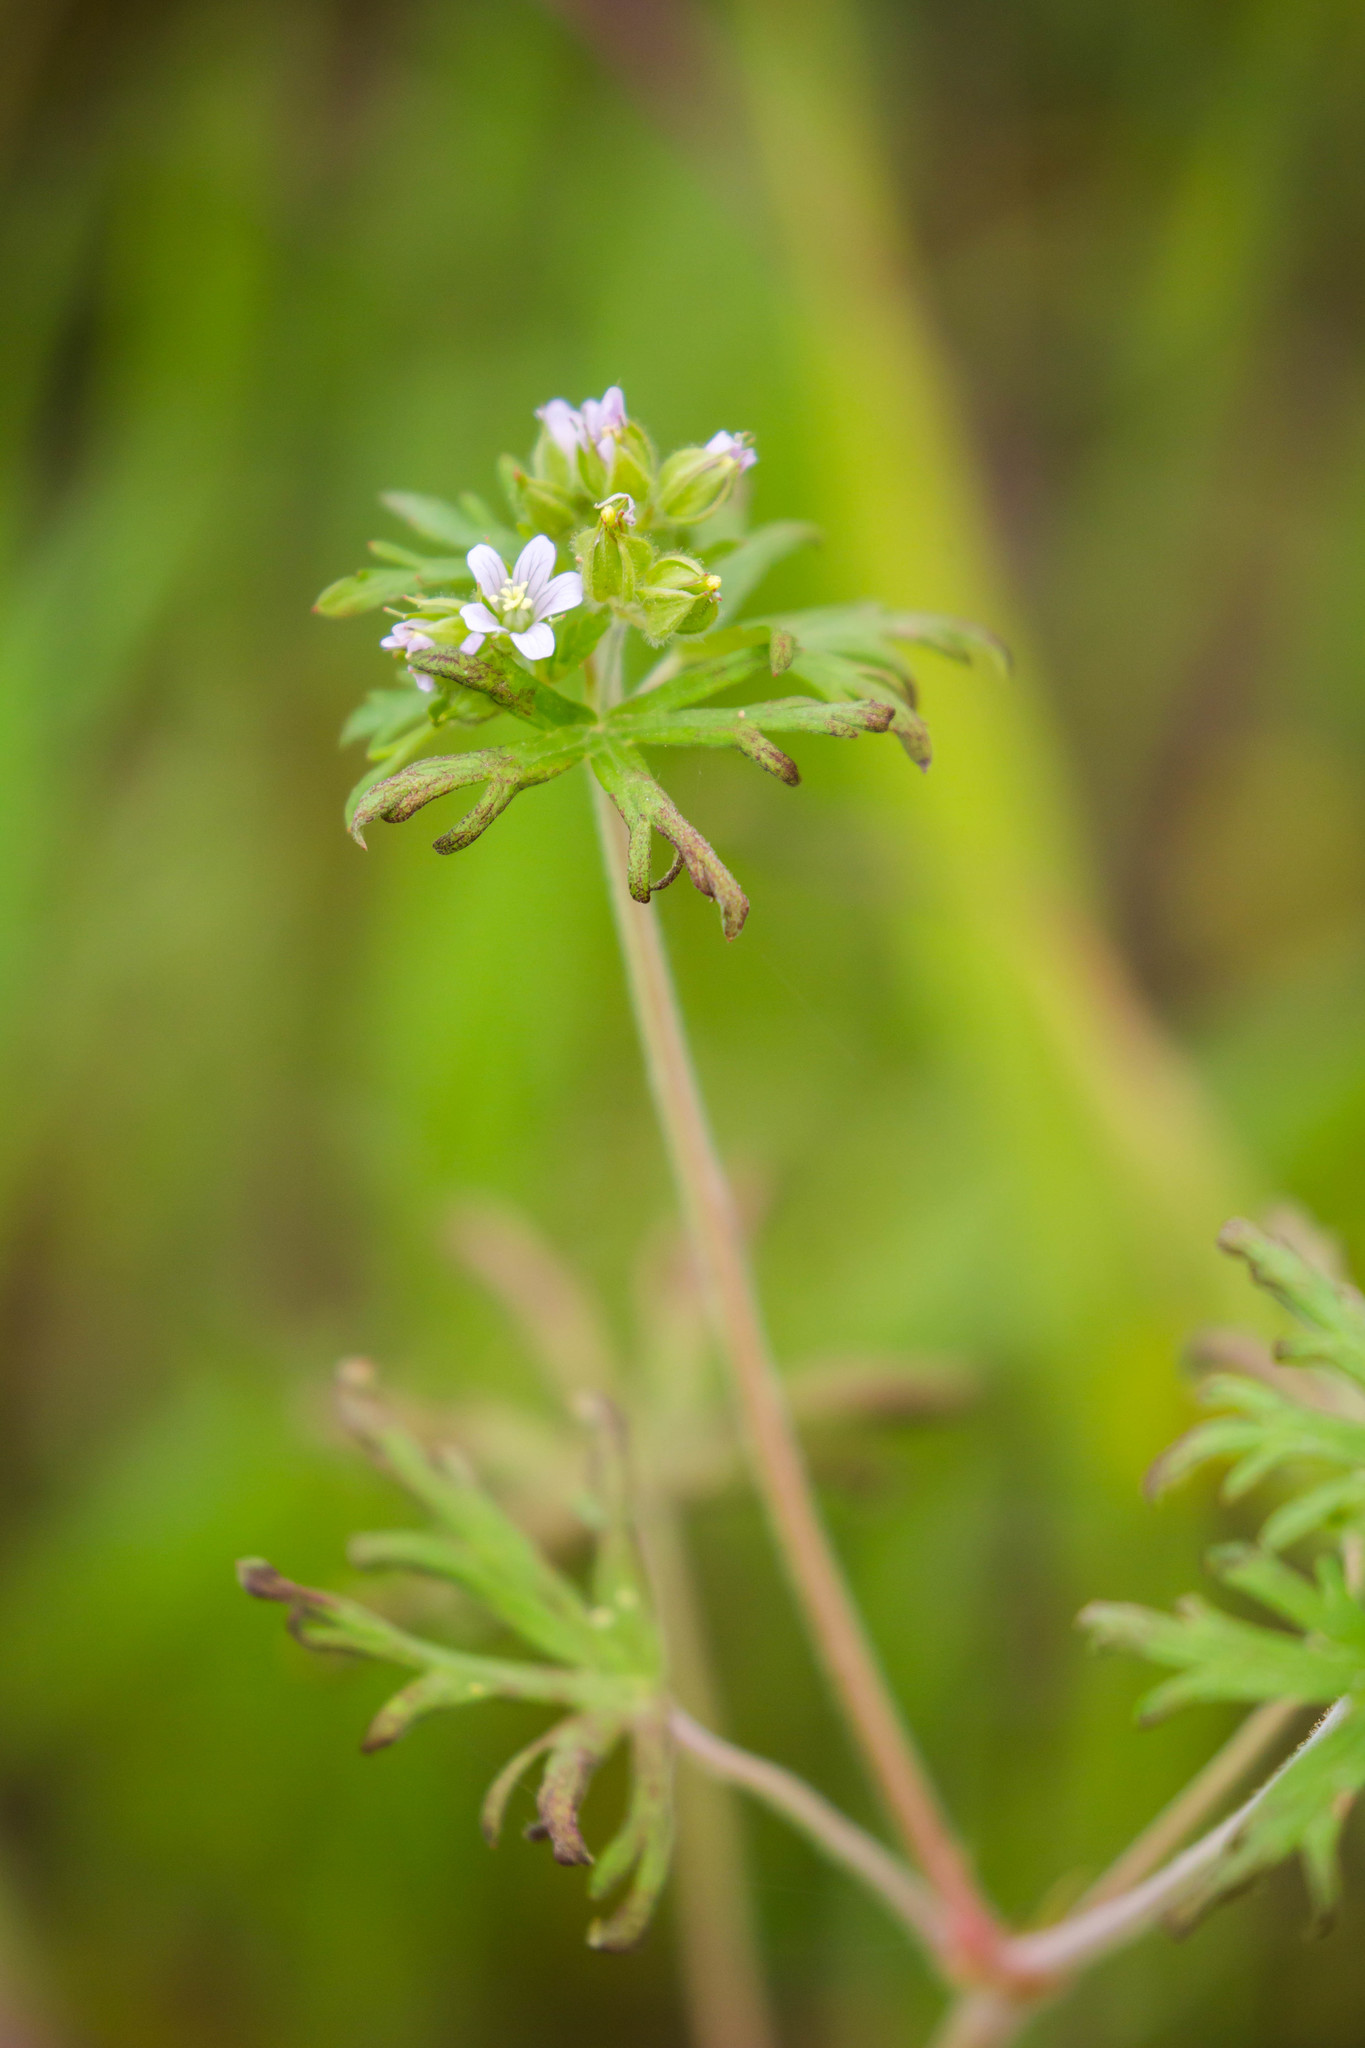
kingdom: Plantae
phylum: Tracheophyta
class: Magnoliopsida
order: Geraniales
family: Geraniaceae
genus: Geranium
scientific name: Geranium carolinianum
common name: Carolina crane's-bill
